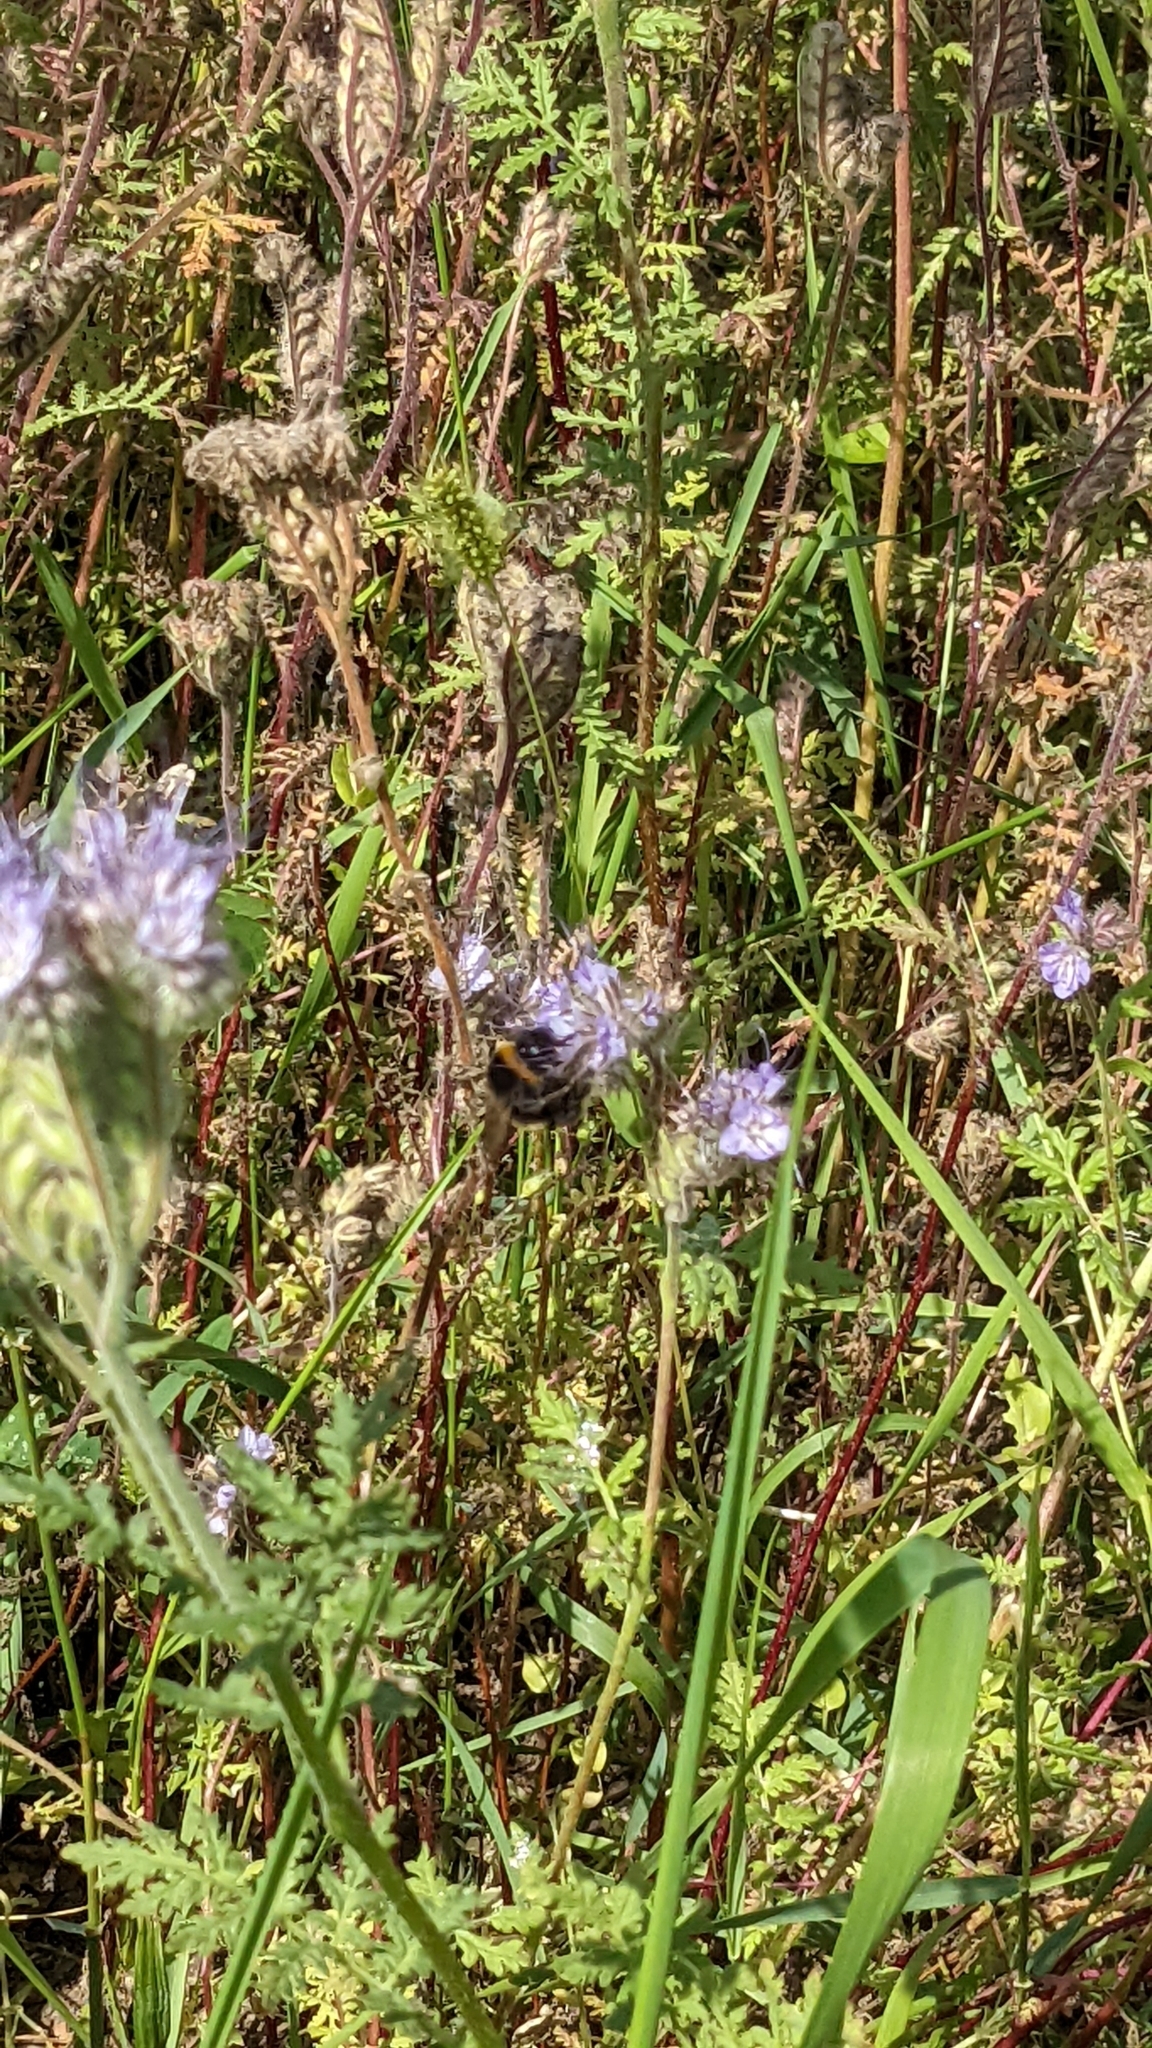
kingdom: Plantae
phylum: Tracheophyta
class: Magnoliopsida
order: Boraginales
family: Hydrophyllaceae
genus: Phacelia
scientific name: Phacelia tanacetifolia
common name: Phacelia
